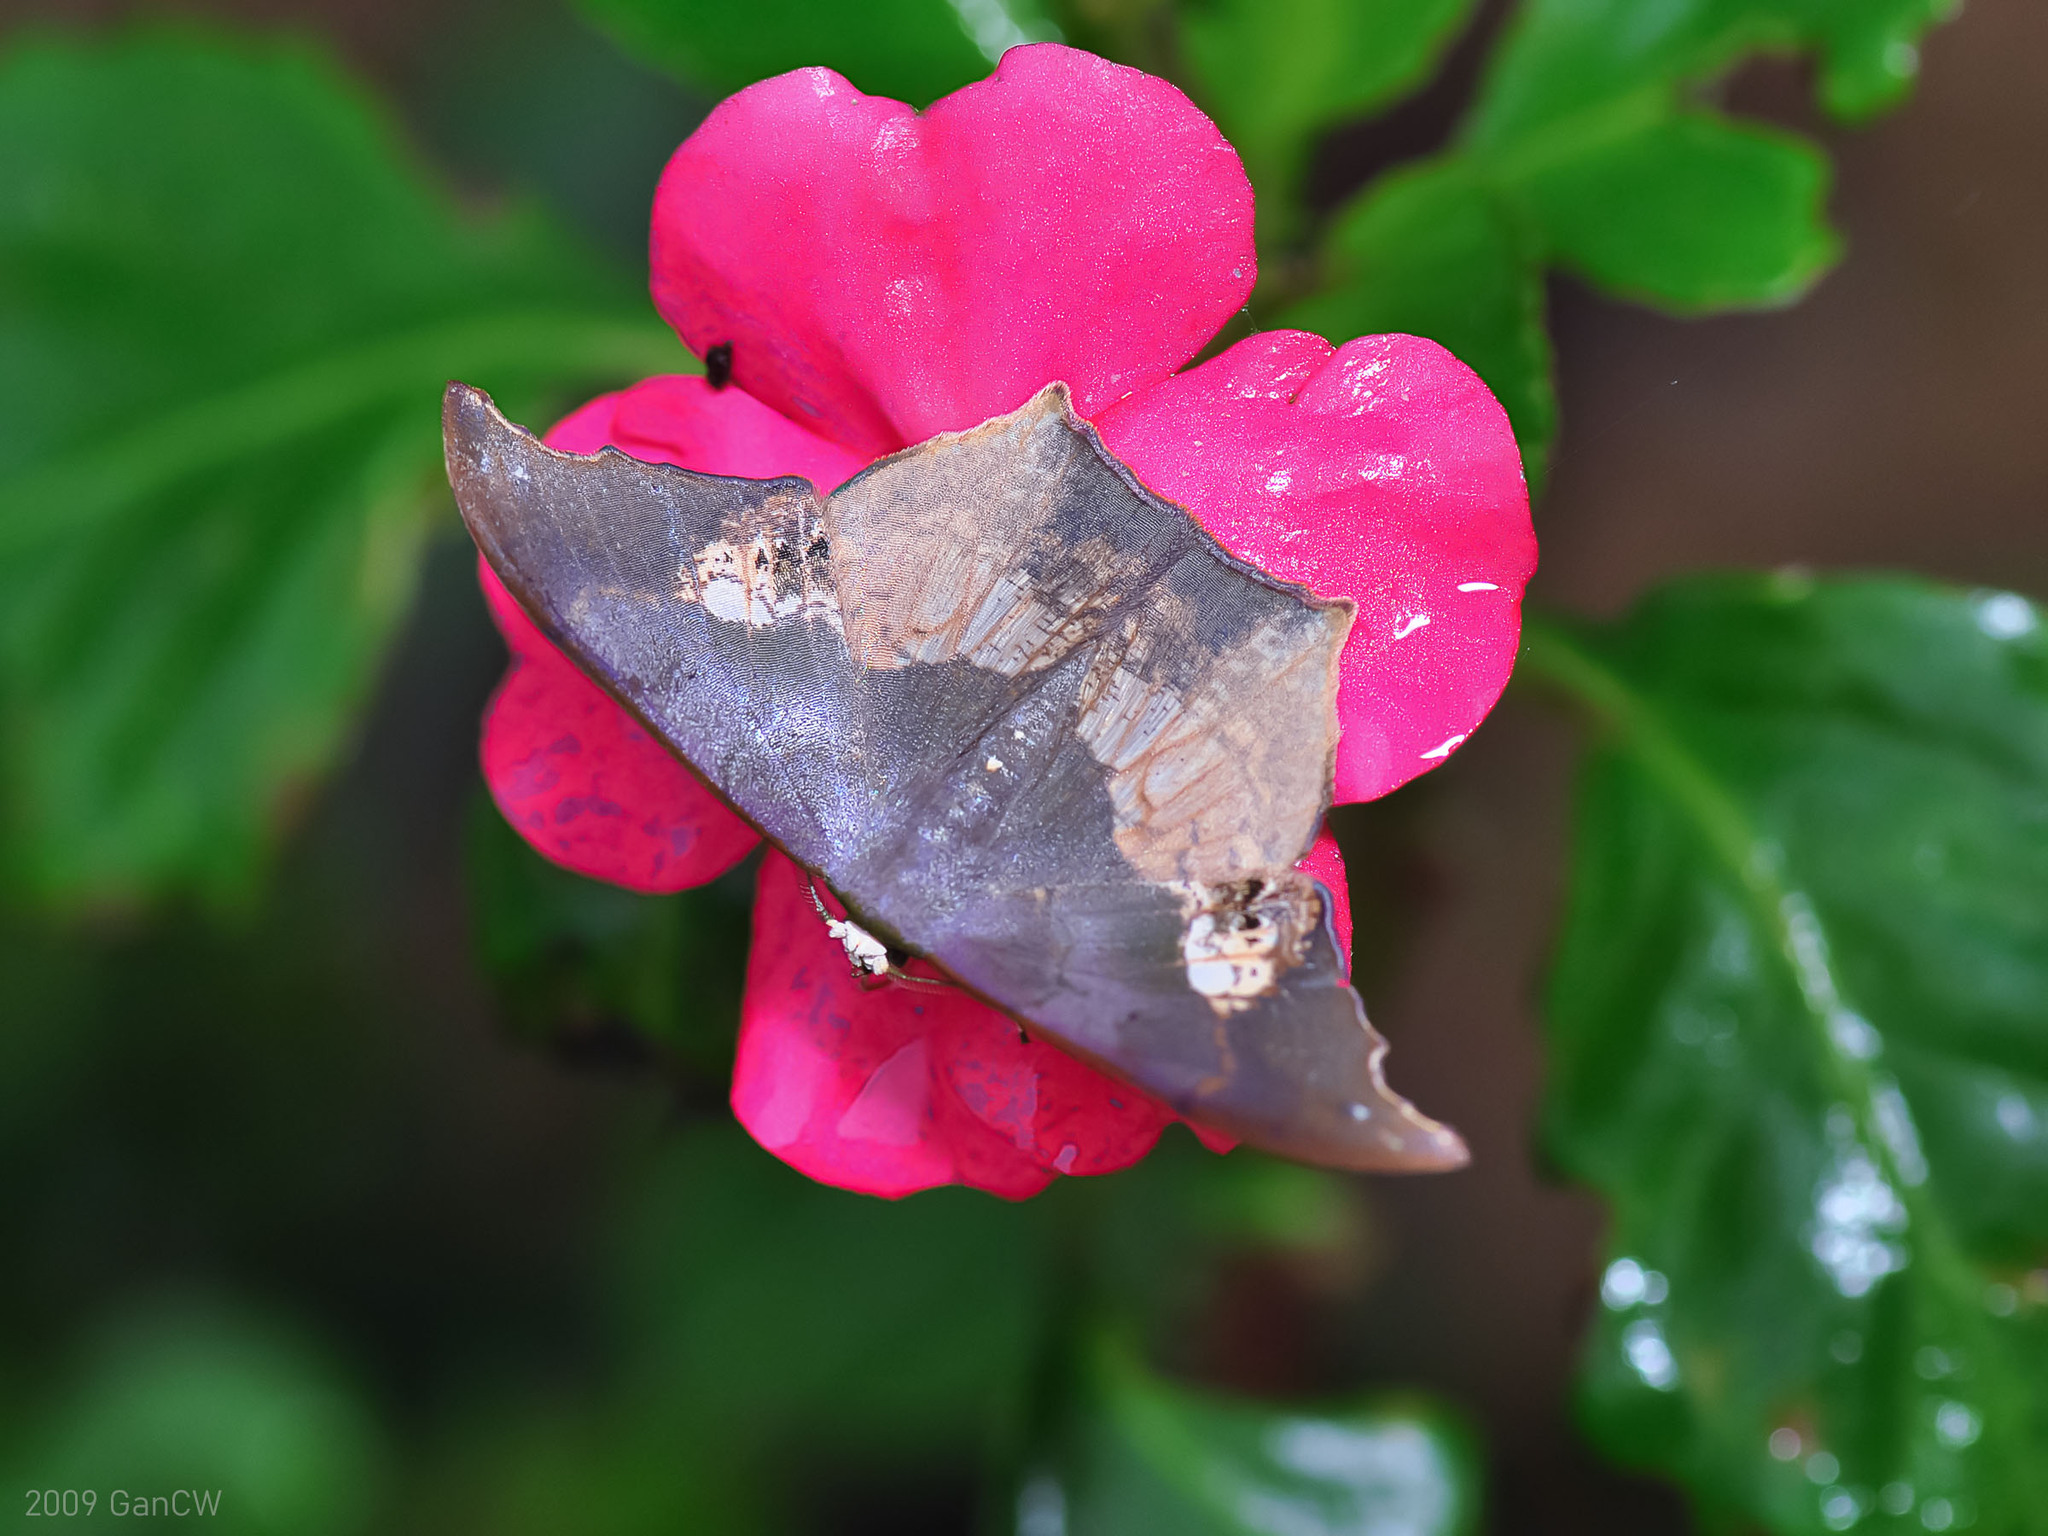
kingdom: Animalia
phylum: Arthropoda
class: Insecta
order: Lepidoptera
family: Geometridae
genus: Timandromorpha
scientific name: Timandromorpha energes
